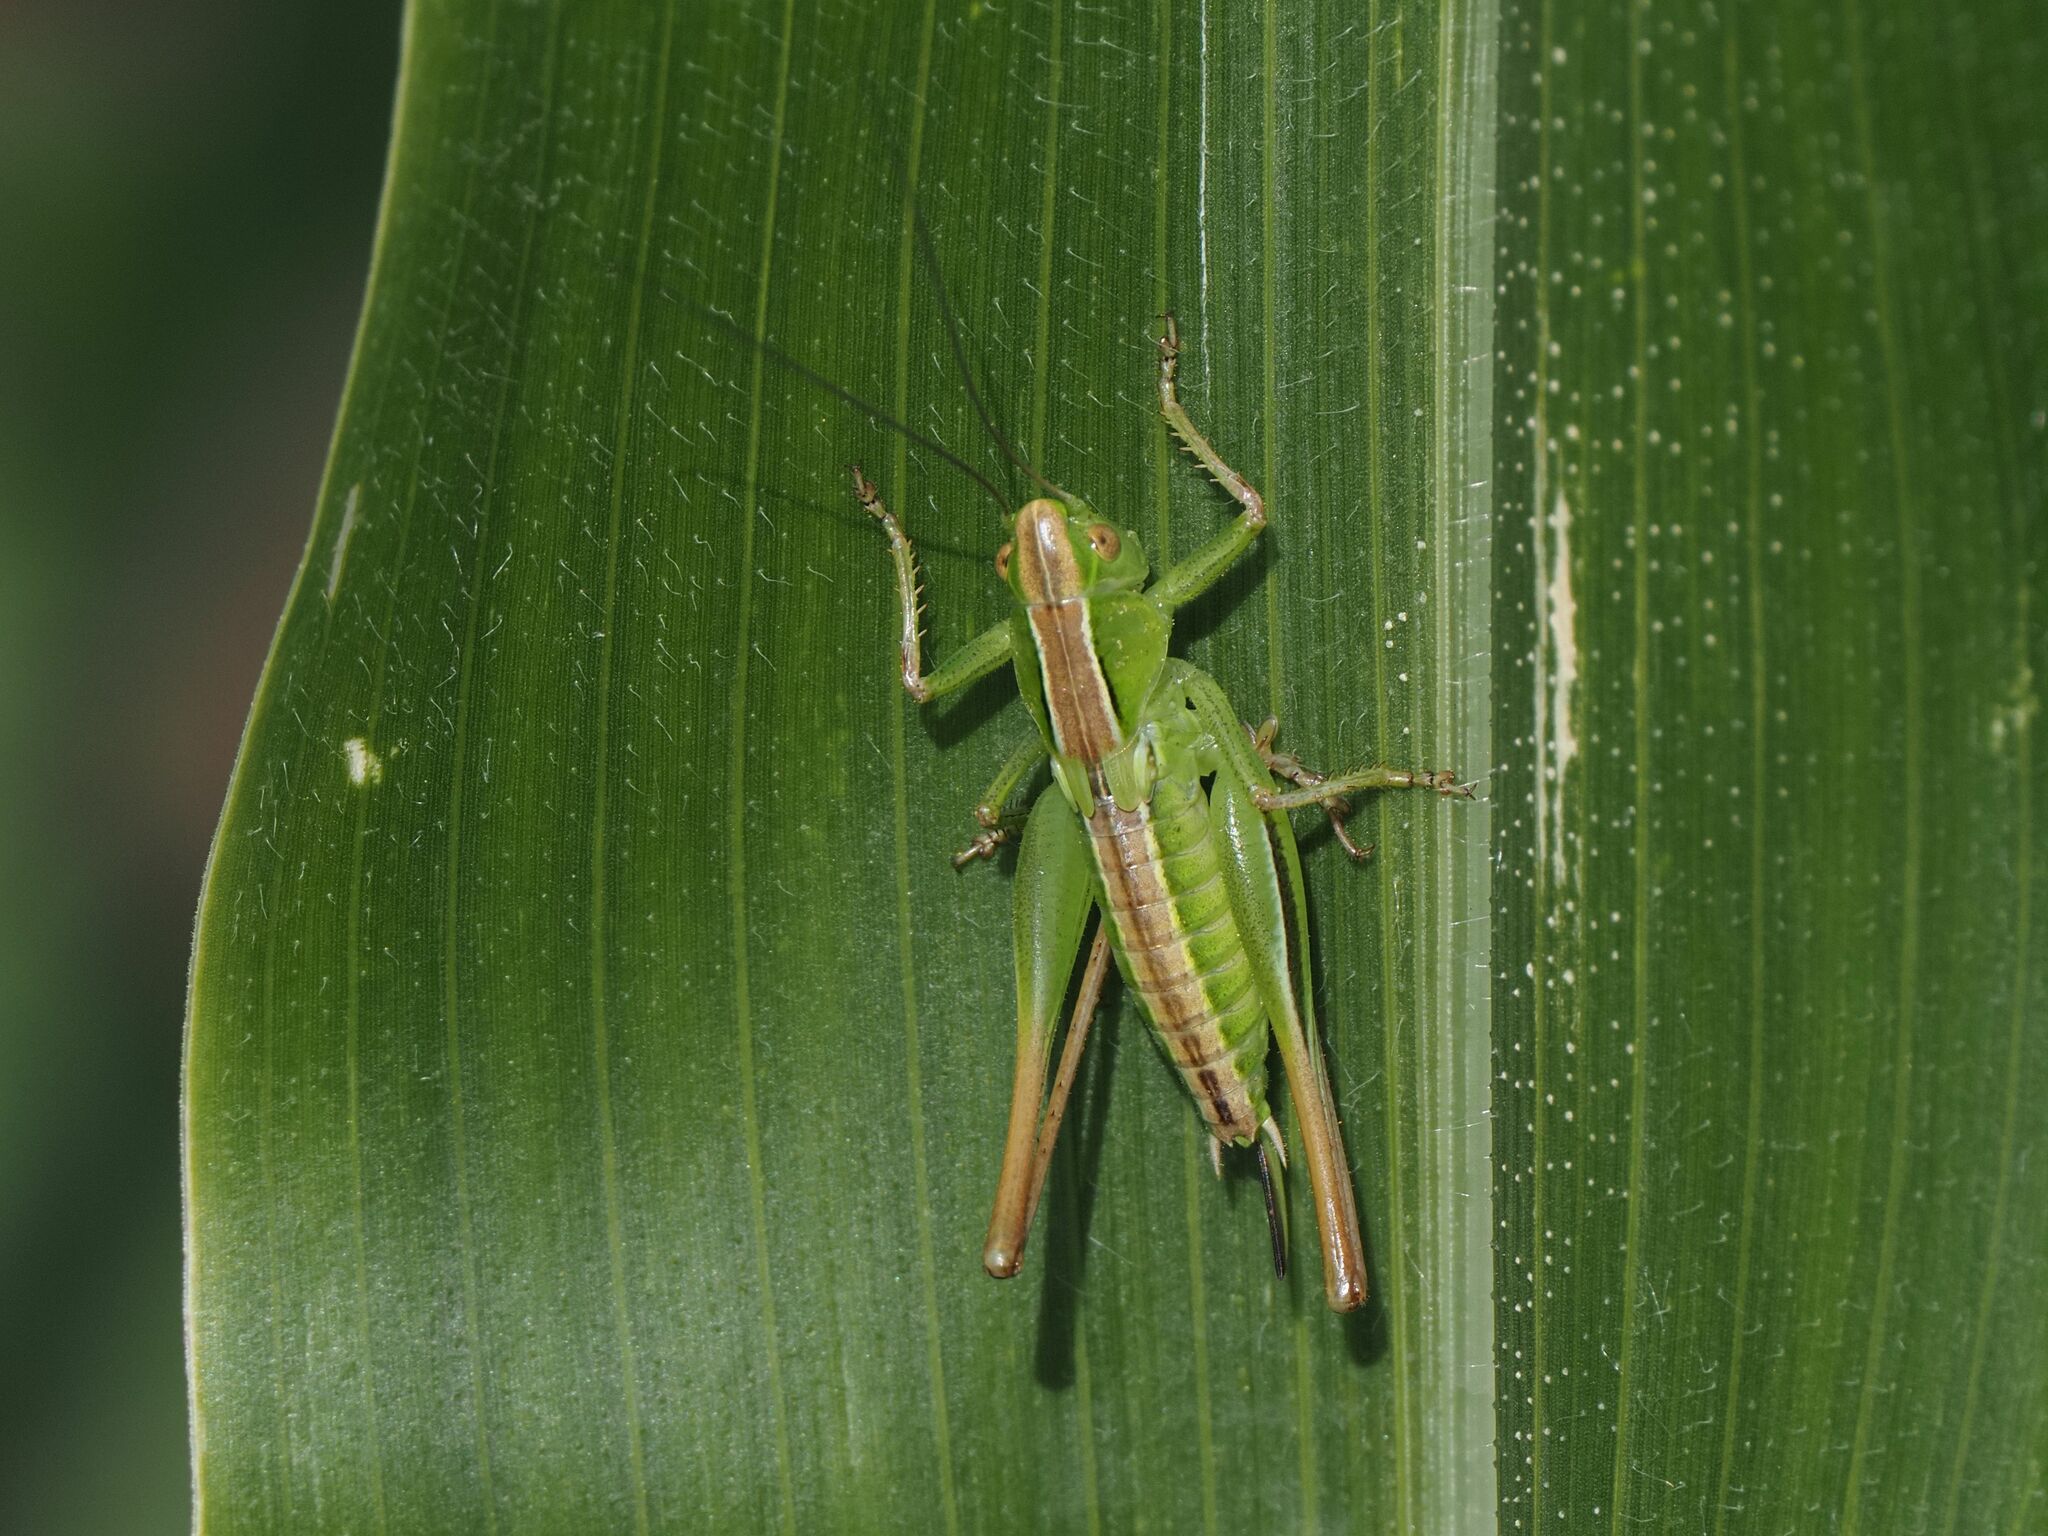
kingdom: Animalia
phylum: Arthropoda
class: Insecta
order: Orthoptera
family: Tettigoniidae
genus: Bicolorana
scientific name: Bicolorana bicolor
